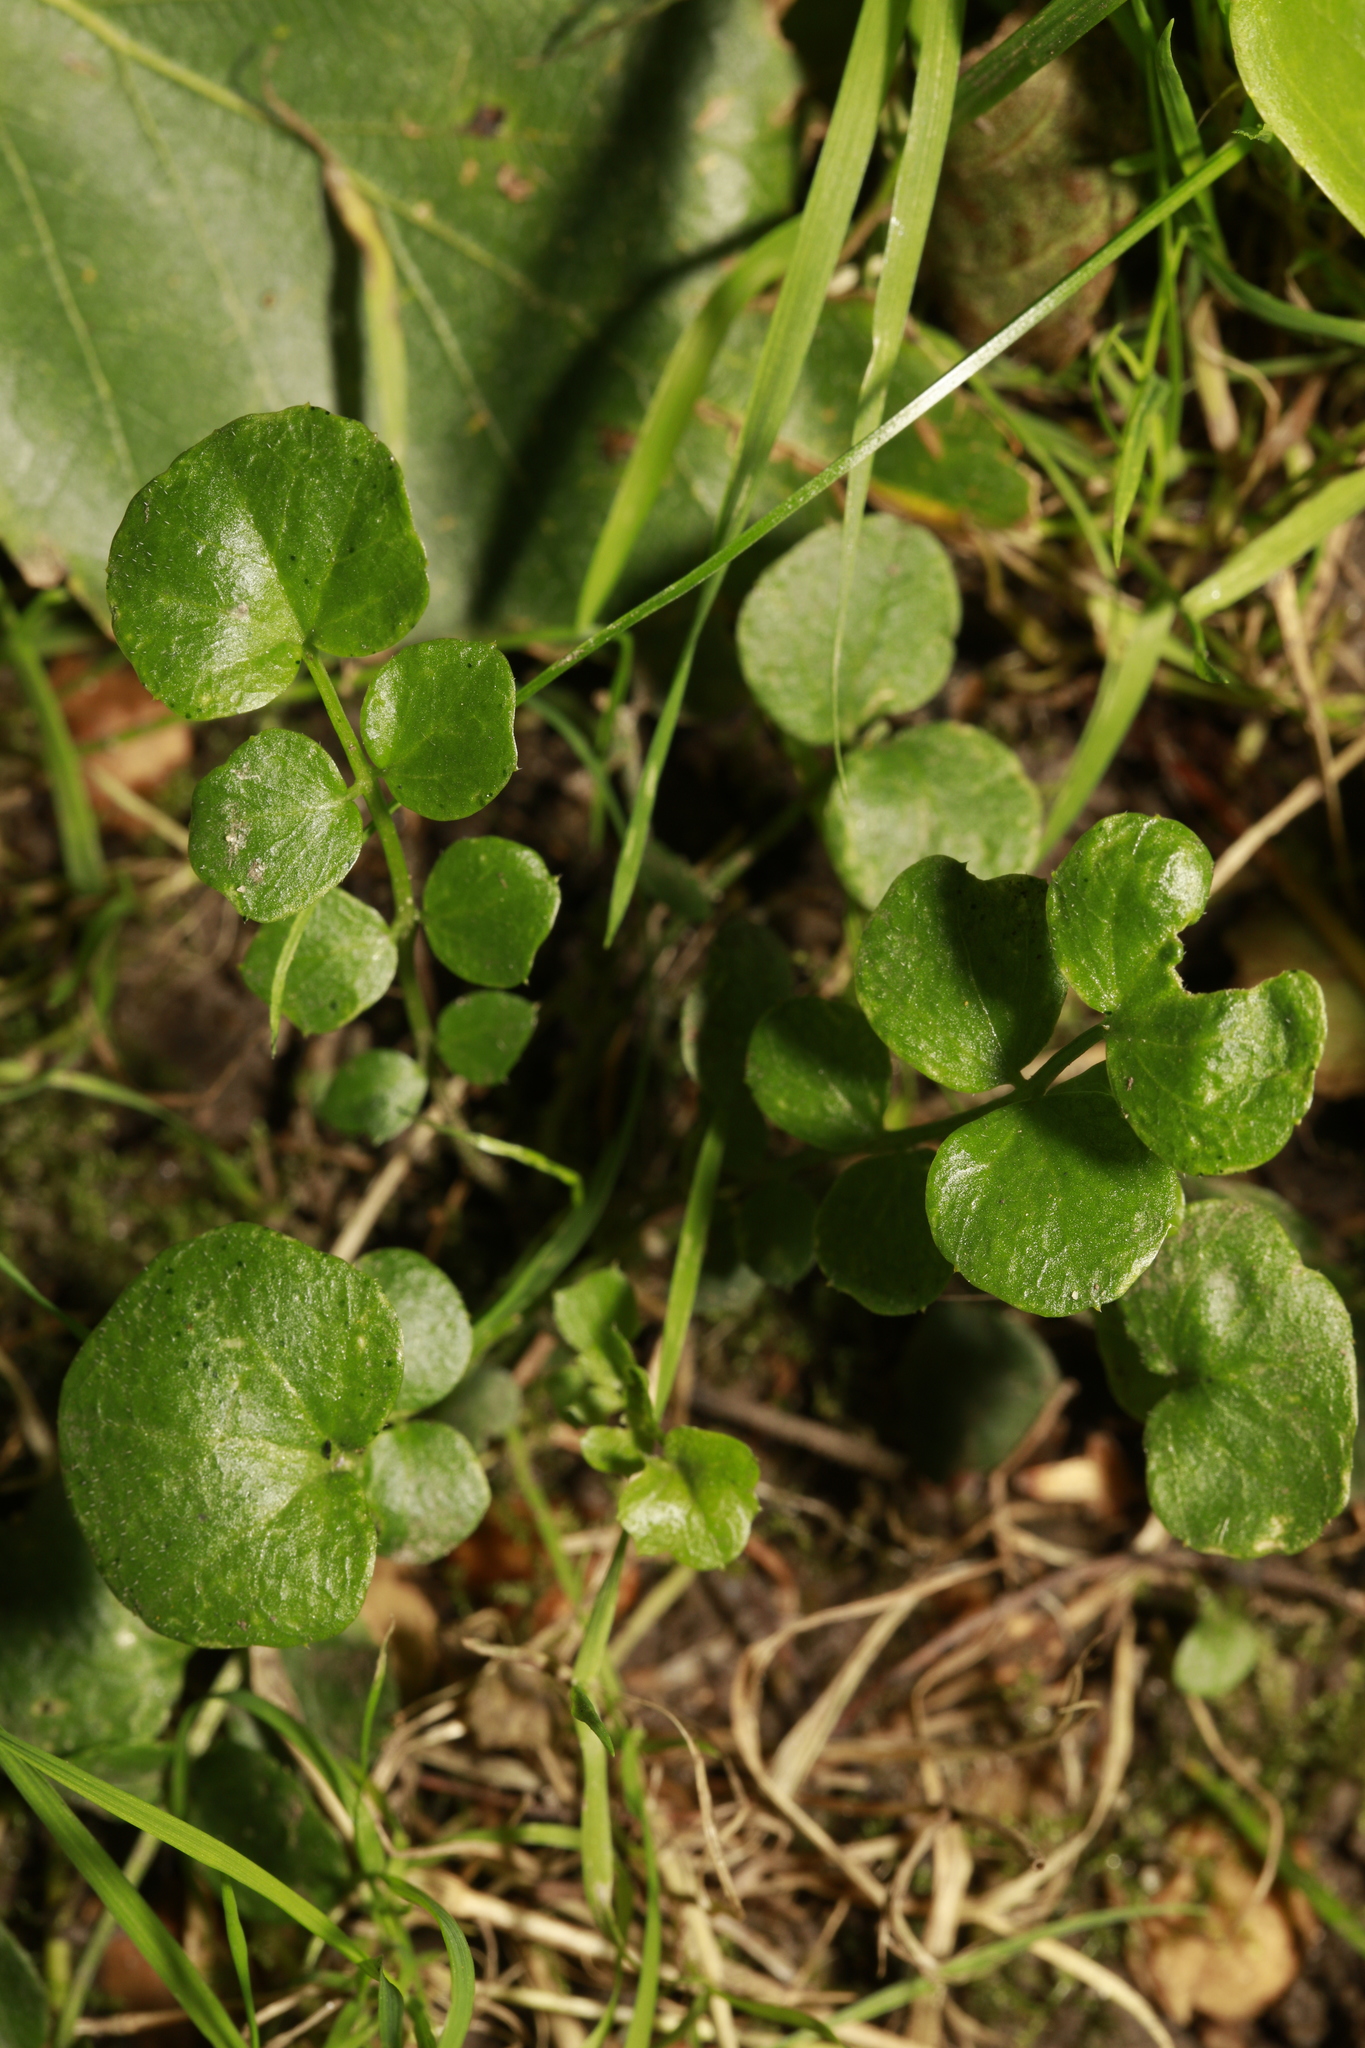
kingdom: Plantae
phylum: Tracheophyta
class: Magnoliopsida
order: Brassicales
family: Brassicaceae
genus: Cardamine
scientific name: Cardamine flexuosa
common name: Woodland bittercress
